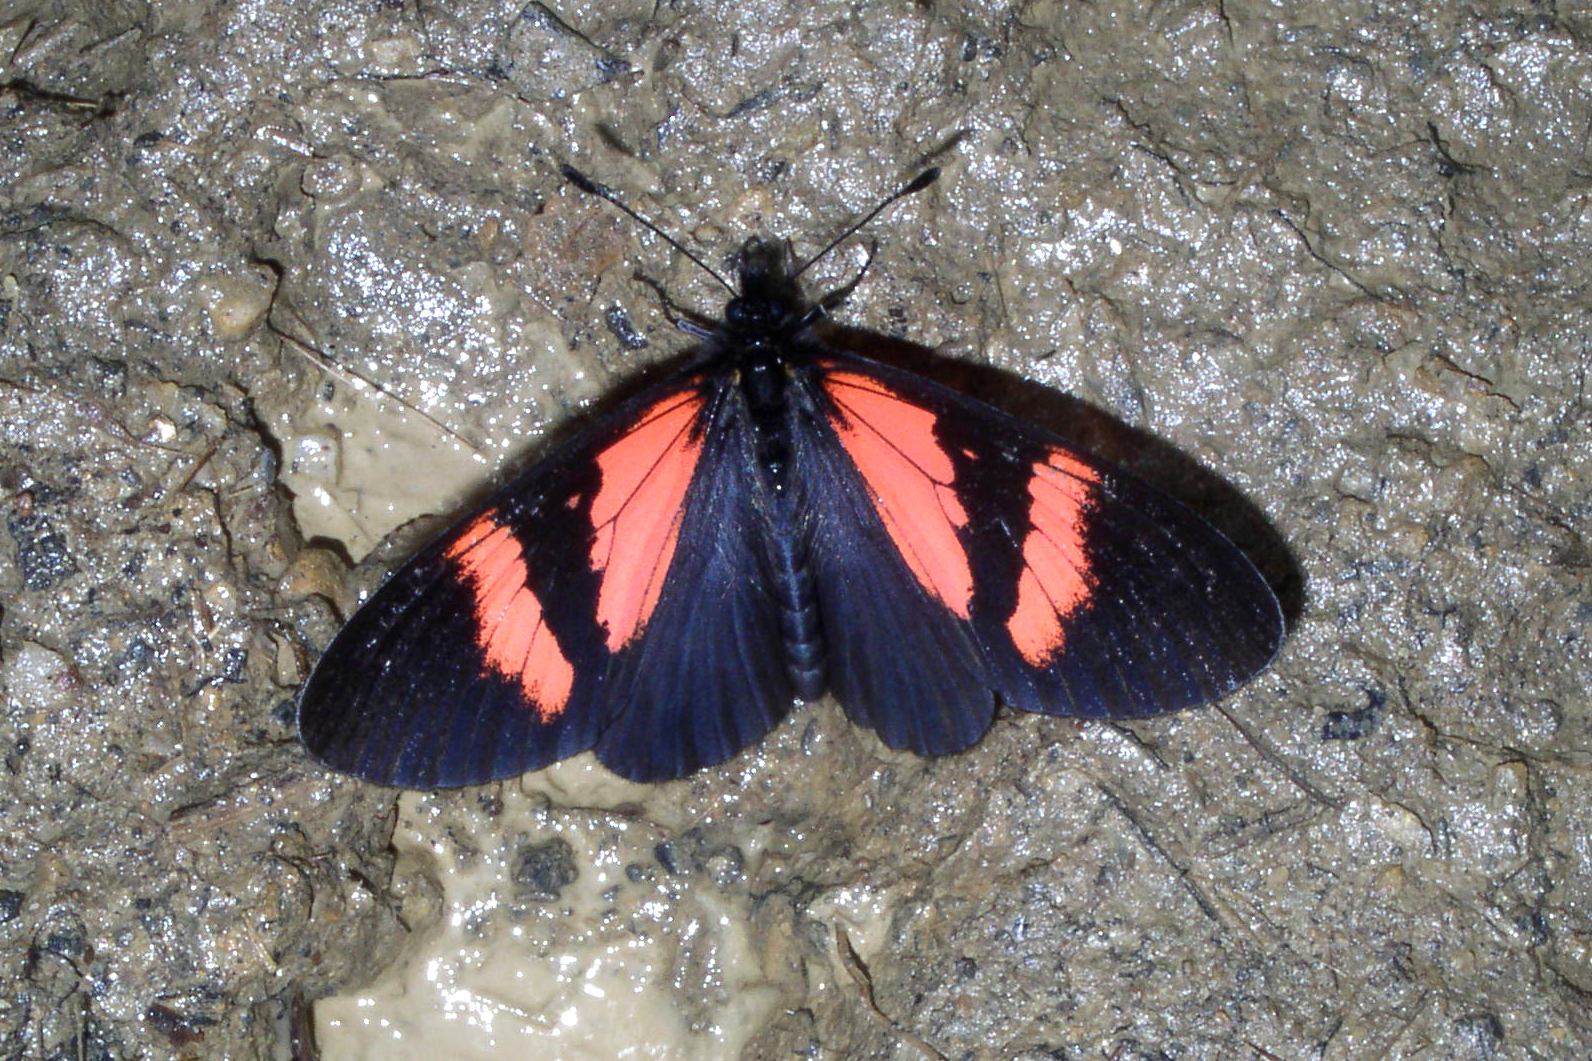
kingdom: Animalia
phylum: Arthropoda
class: Insecta
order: Lepidoptera
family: Nymphalidae
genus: Acraea
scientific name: Acraea Altinote dicaeus
